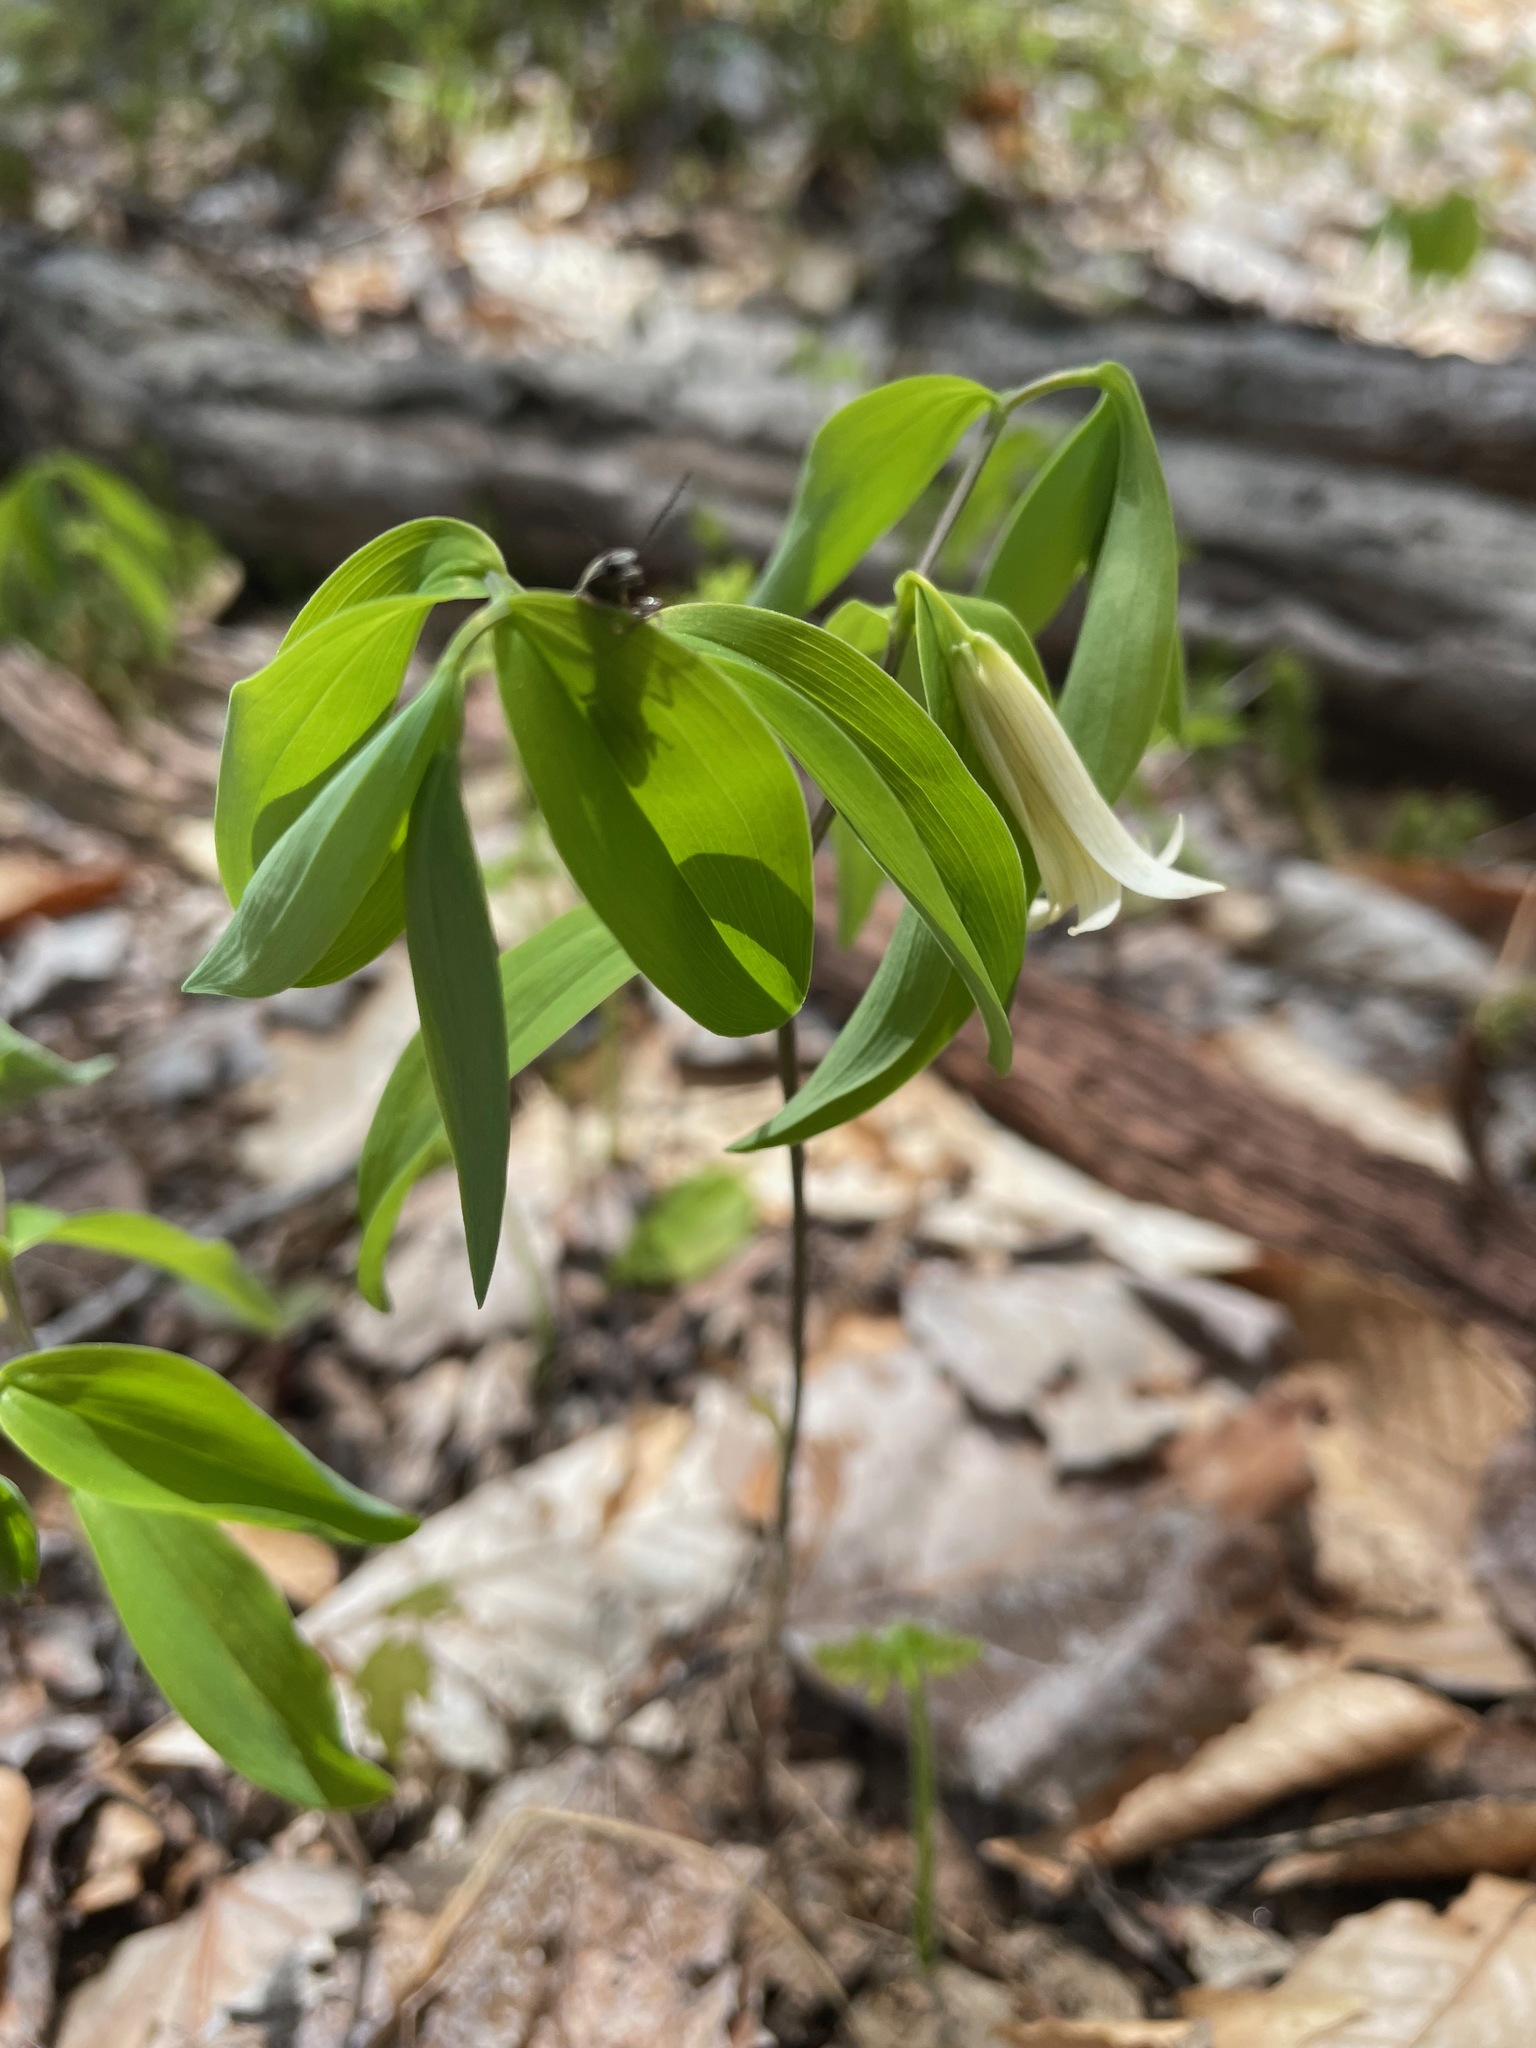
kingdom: Plantae
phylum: Tracheophyta
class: Liliopsida
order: Liliales
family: Colchicaceae
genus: Uvularia
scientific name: Uvularia sessilifolia
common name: Straw-lily
